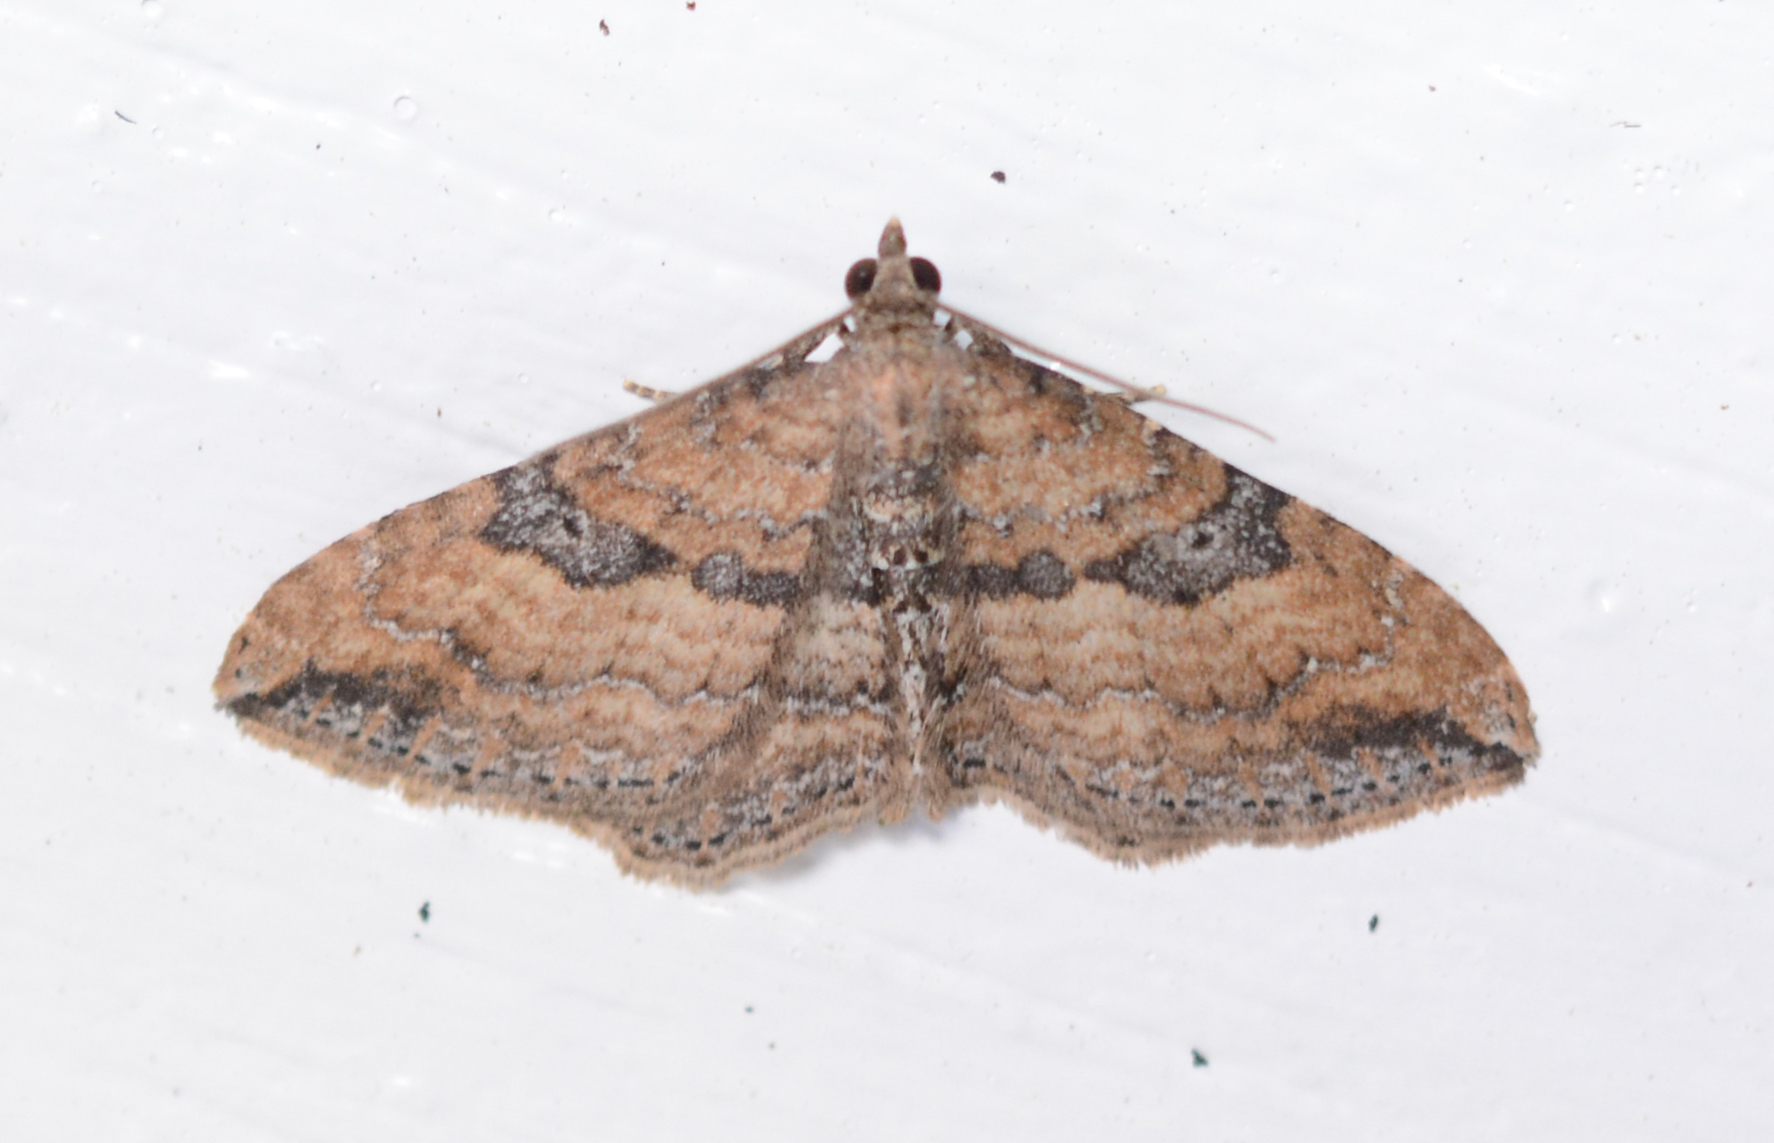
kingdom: Animalia
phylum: Arthropoda
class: Insecta
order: Lepidoptera
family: Geometridae
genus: Orthonama
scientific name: Orthonama obstipata
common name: The gem
